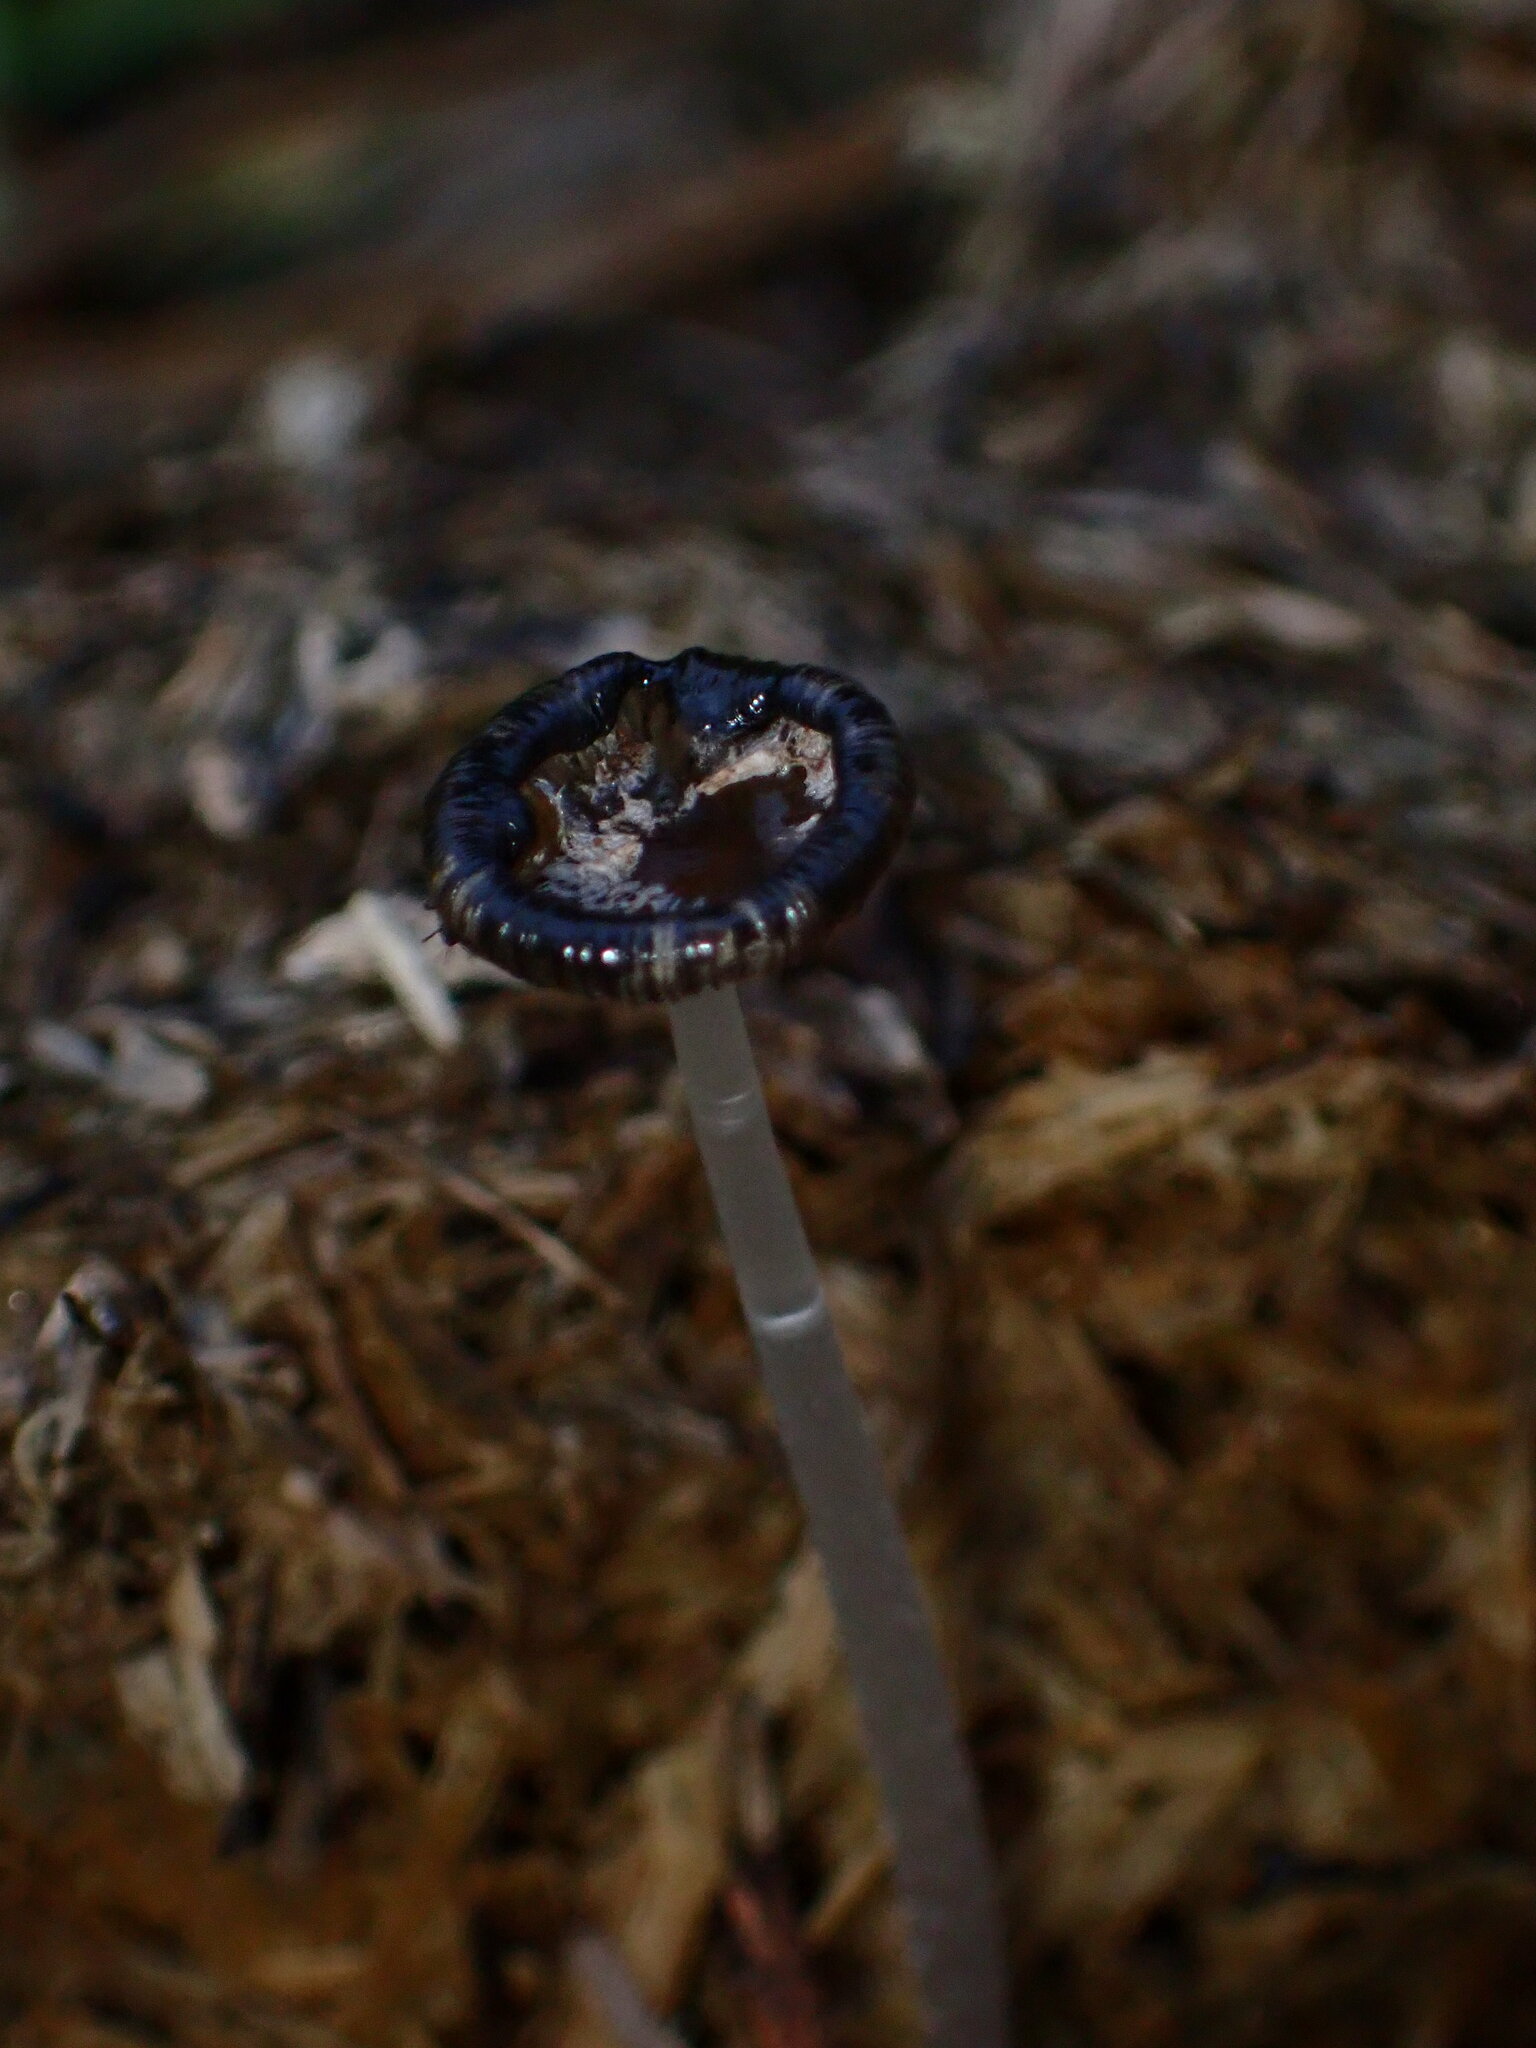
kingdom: Fungi
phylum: Basidiomycota
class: Agaricomycetes
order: Agaricales
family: Psathyrellaceae
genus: Coprinopsis
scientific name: Coprinopsis cinerea
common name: Grey inkcap
